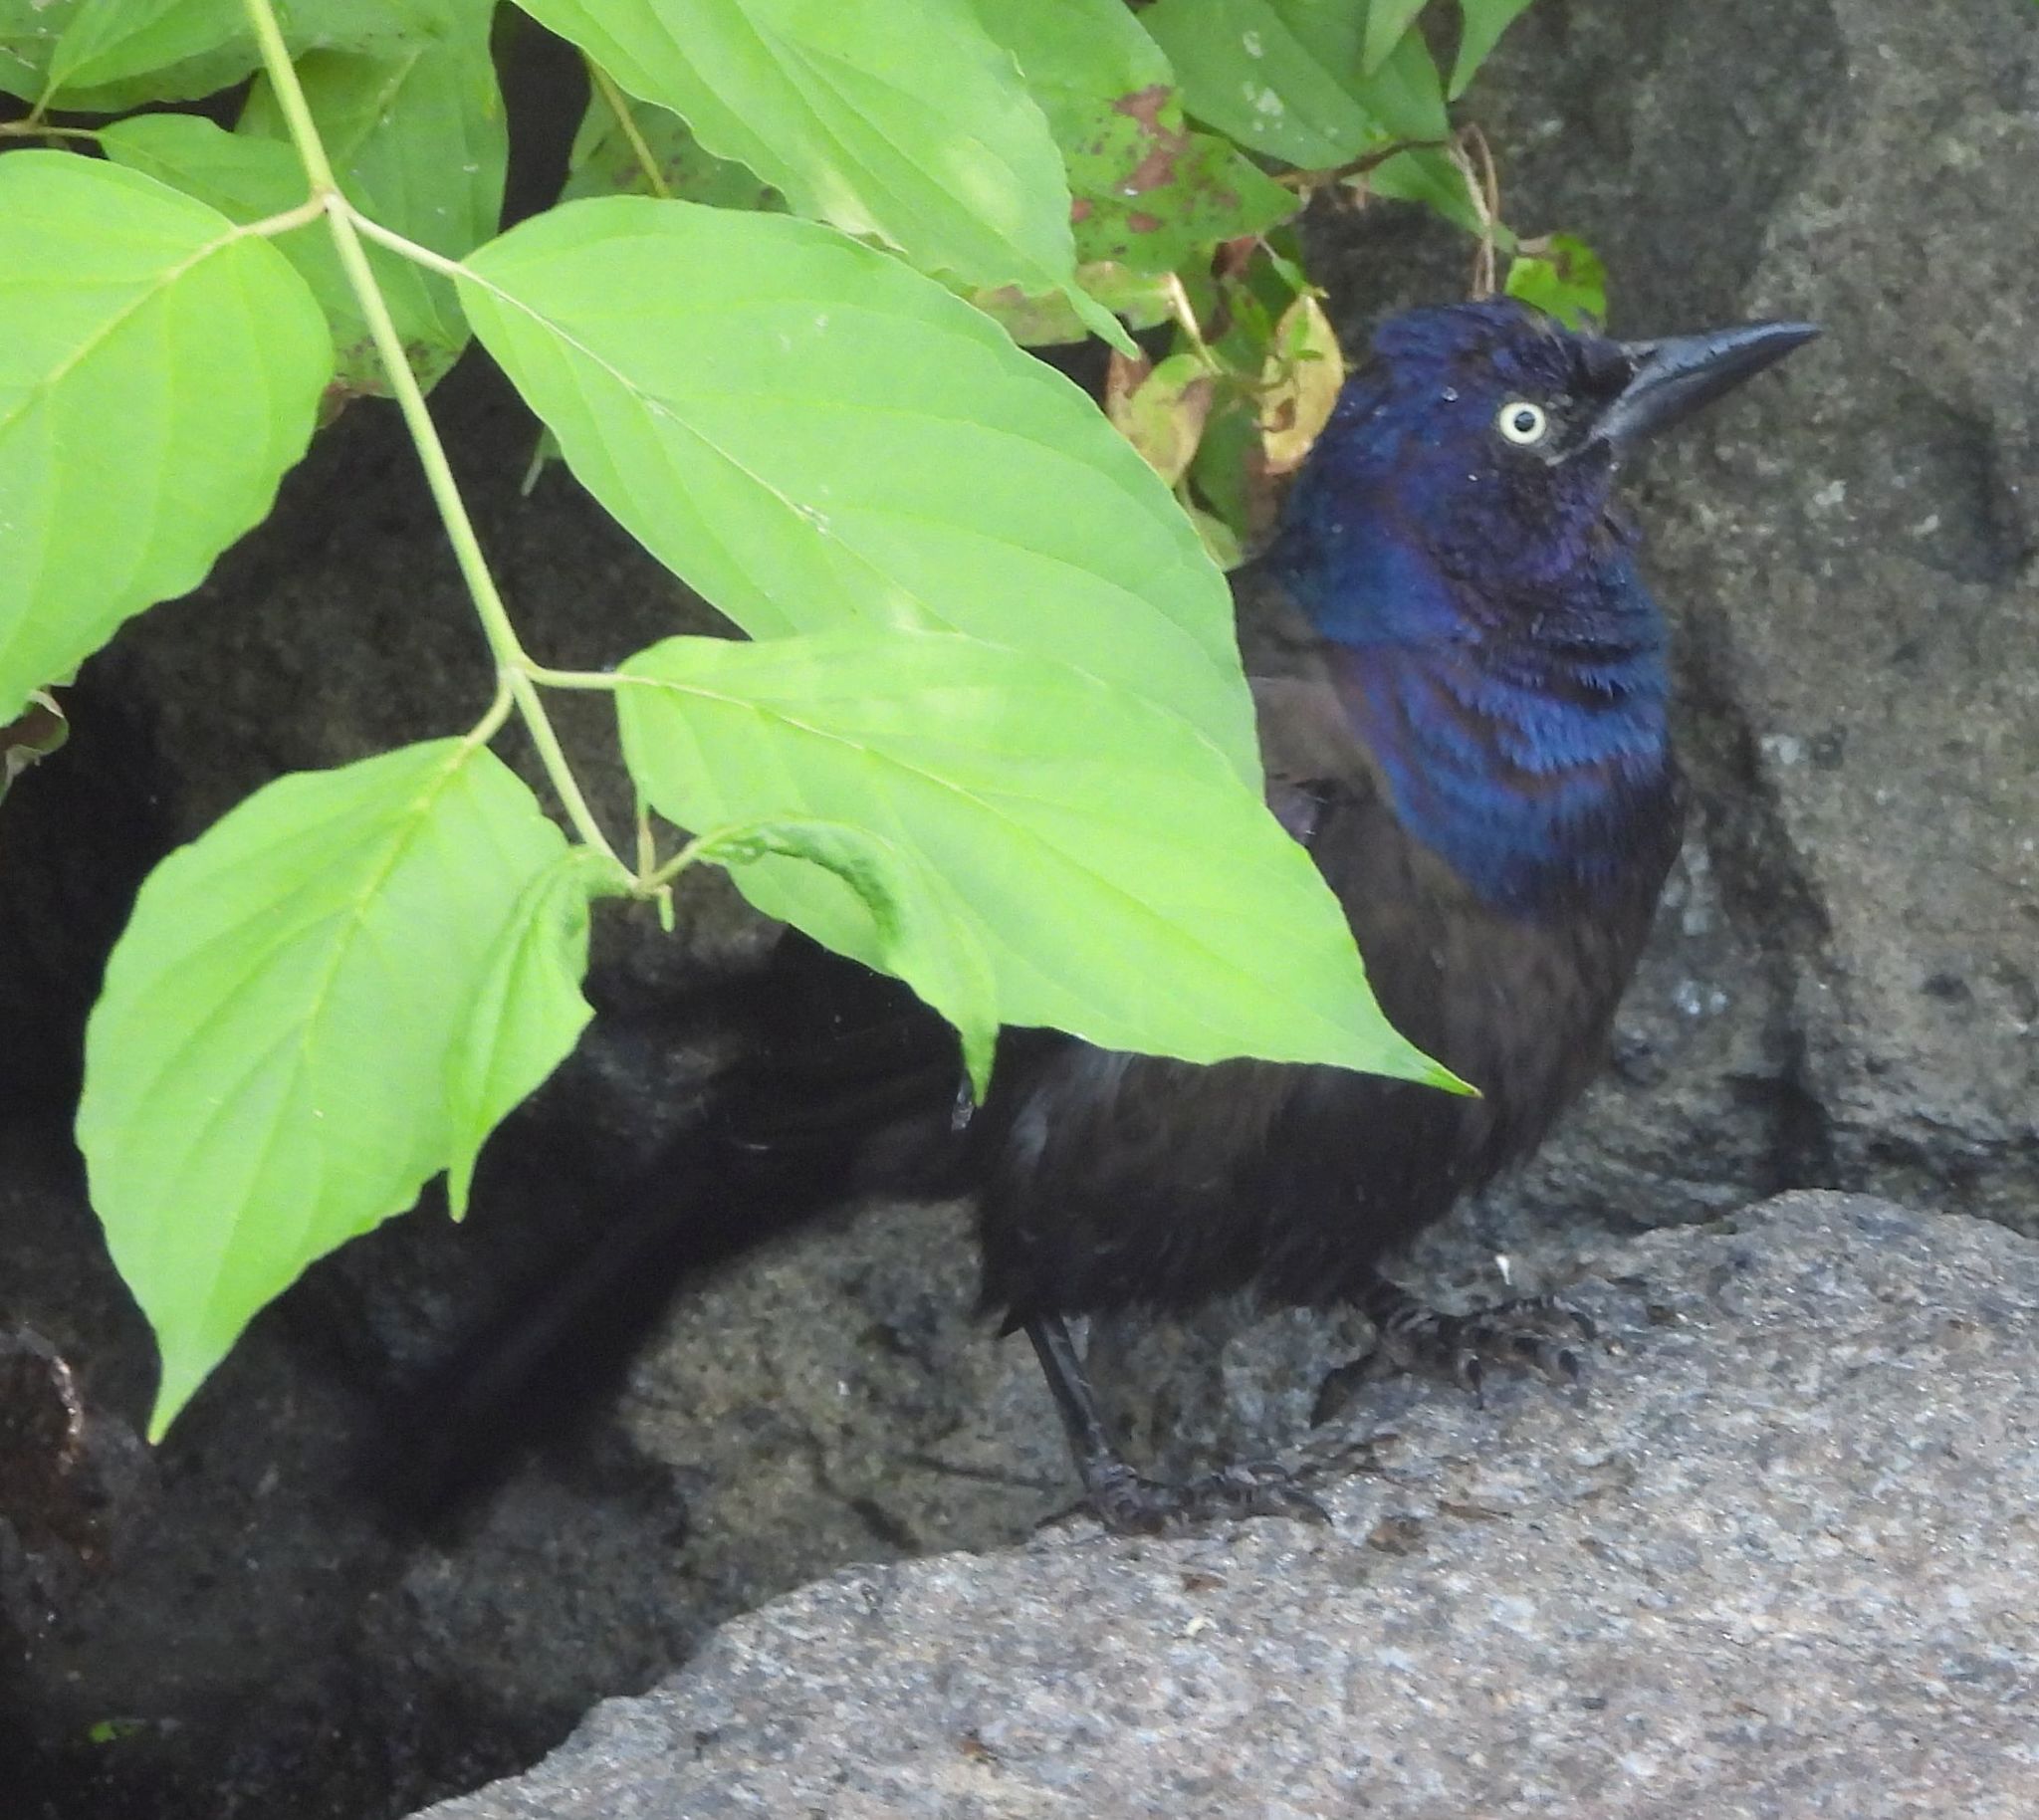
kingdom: Animalia
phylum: Chordata
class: Aves
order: Passeriformes
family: Icteridae
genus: Quiscalus
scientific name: Quiscalus quiscula
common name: Common grackle
